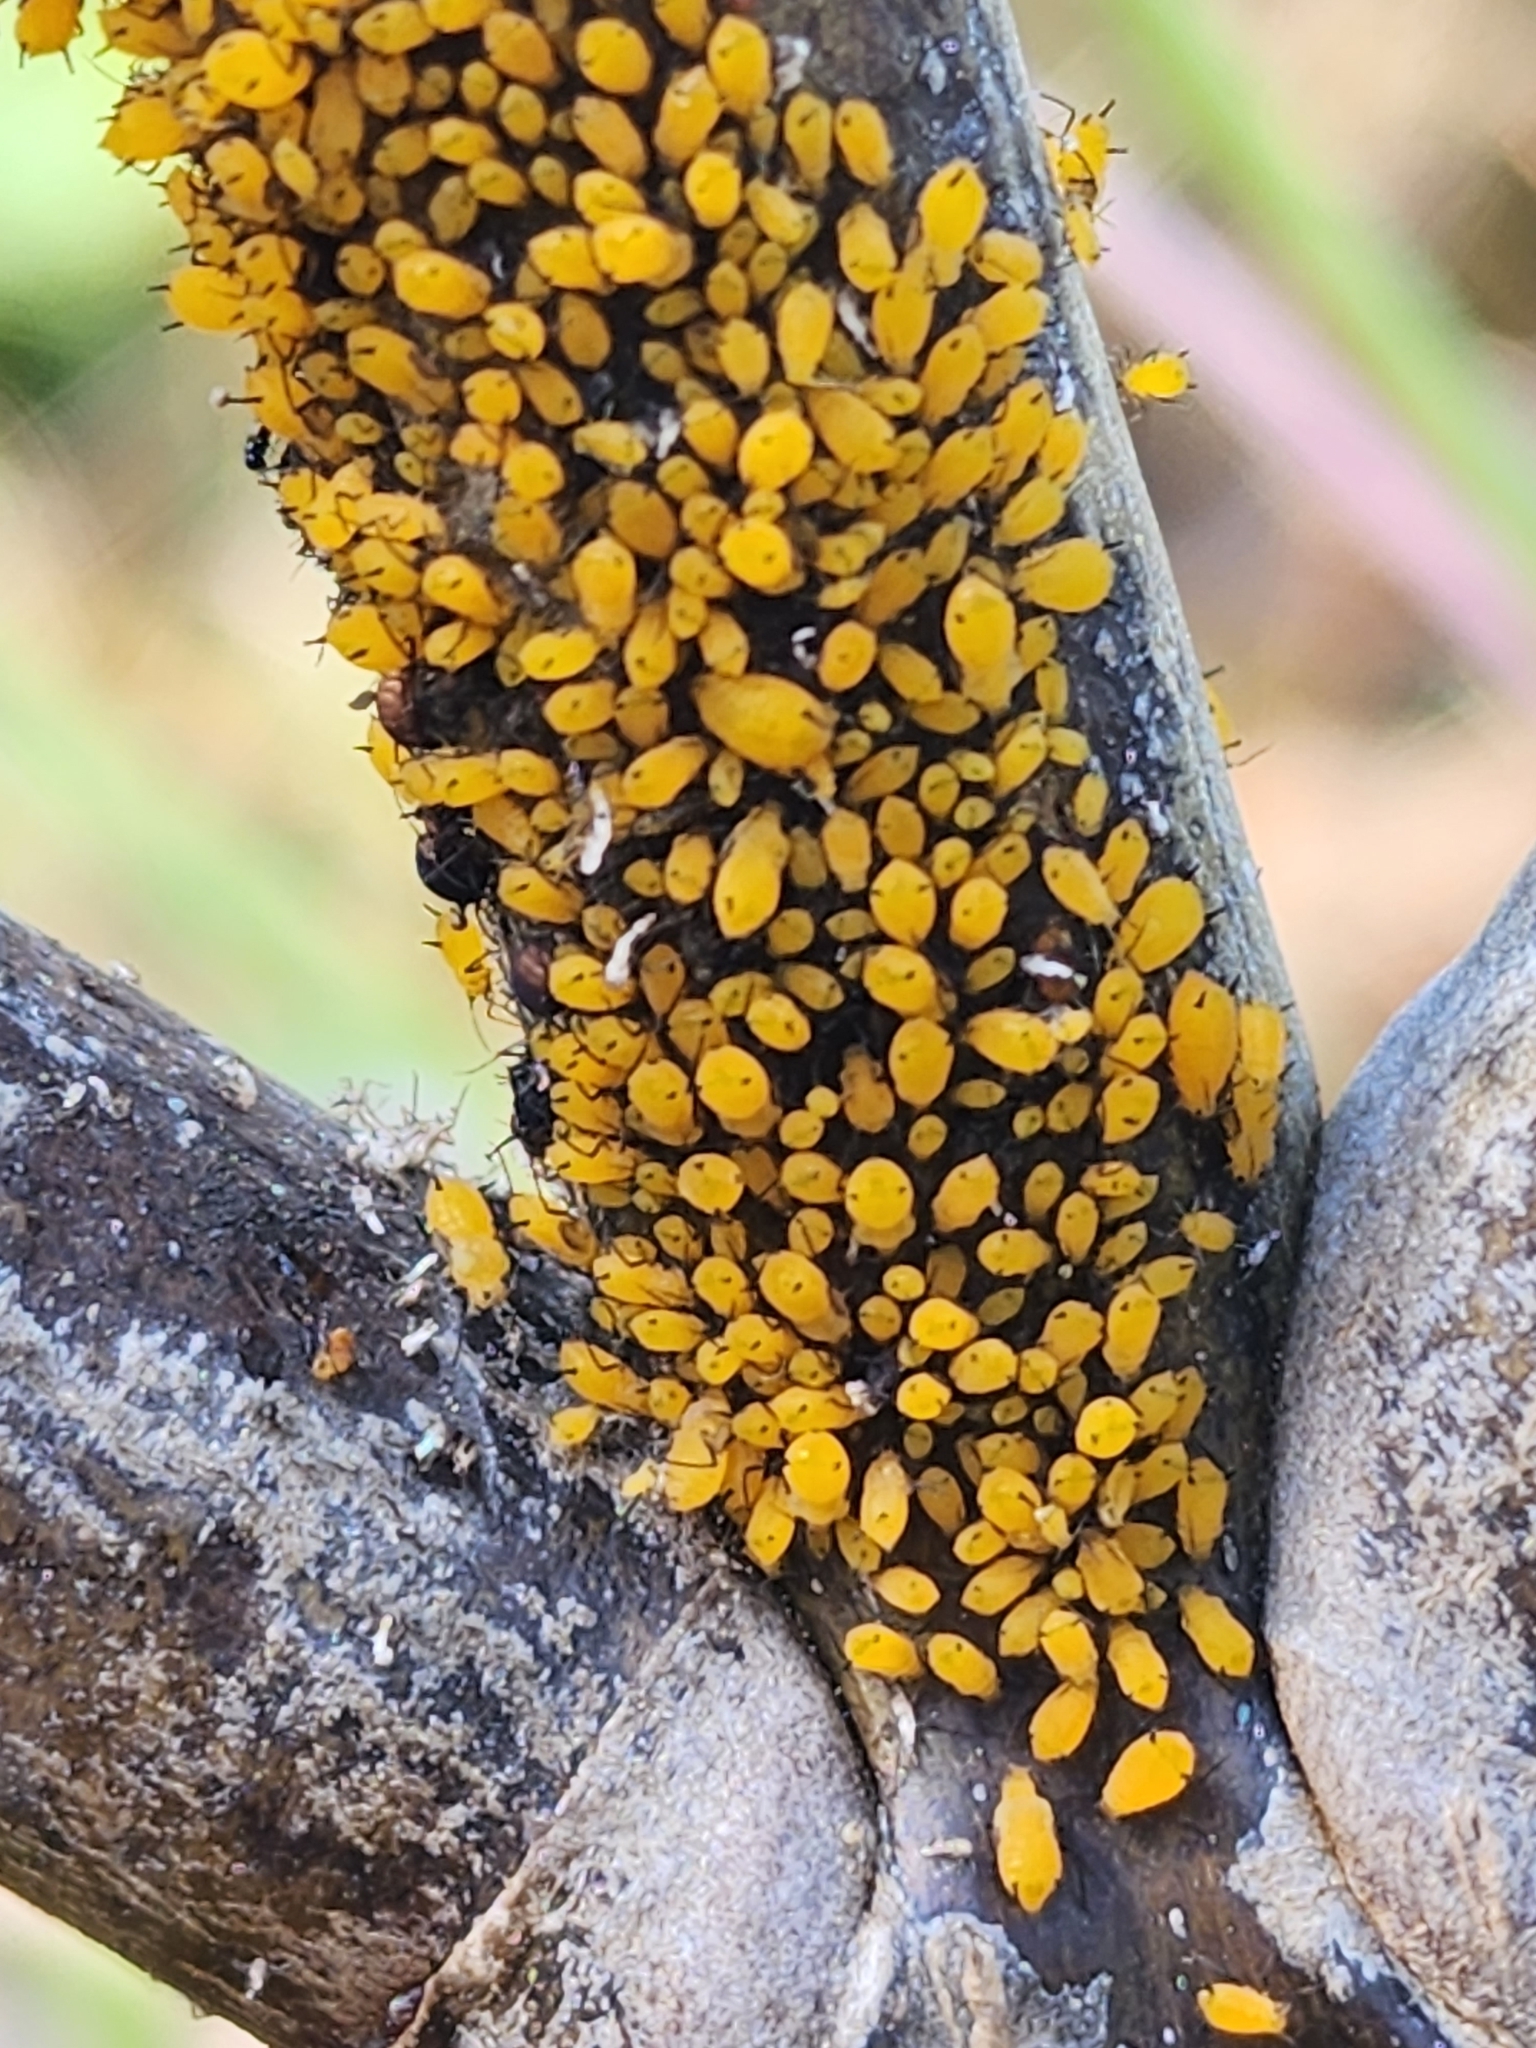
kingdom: Animalia
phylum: Arthropoda
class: Insecta
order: Hemiptera
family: Aphididae
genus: Aphis
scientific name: Aphis nerii
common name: Oleander aphid
